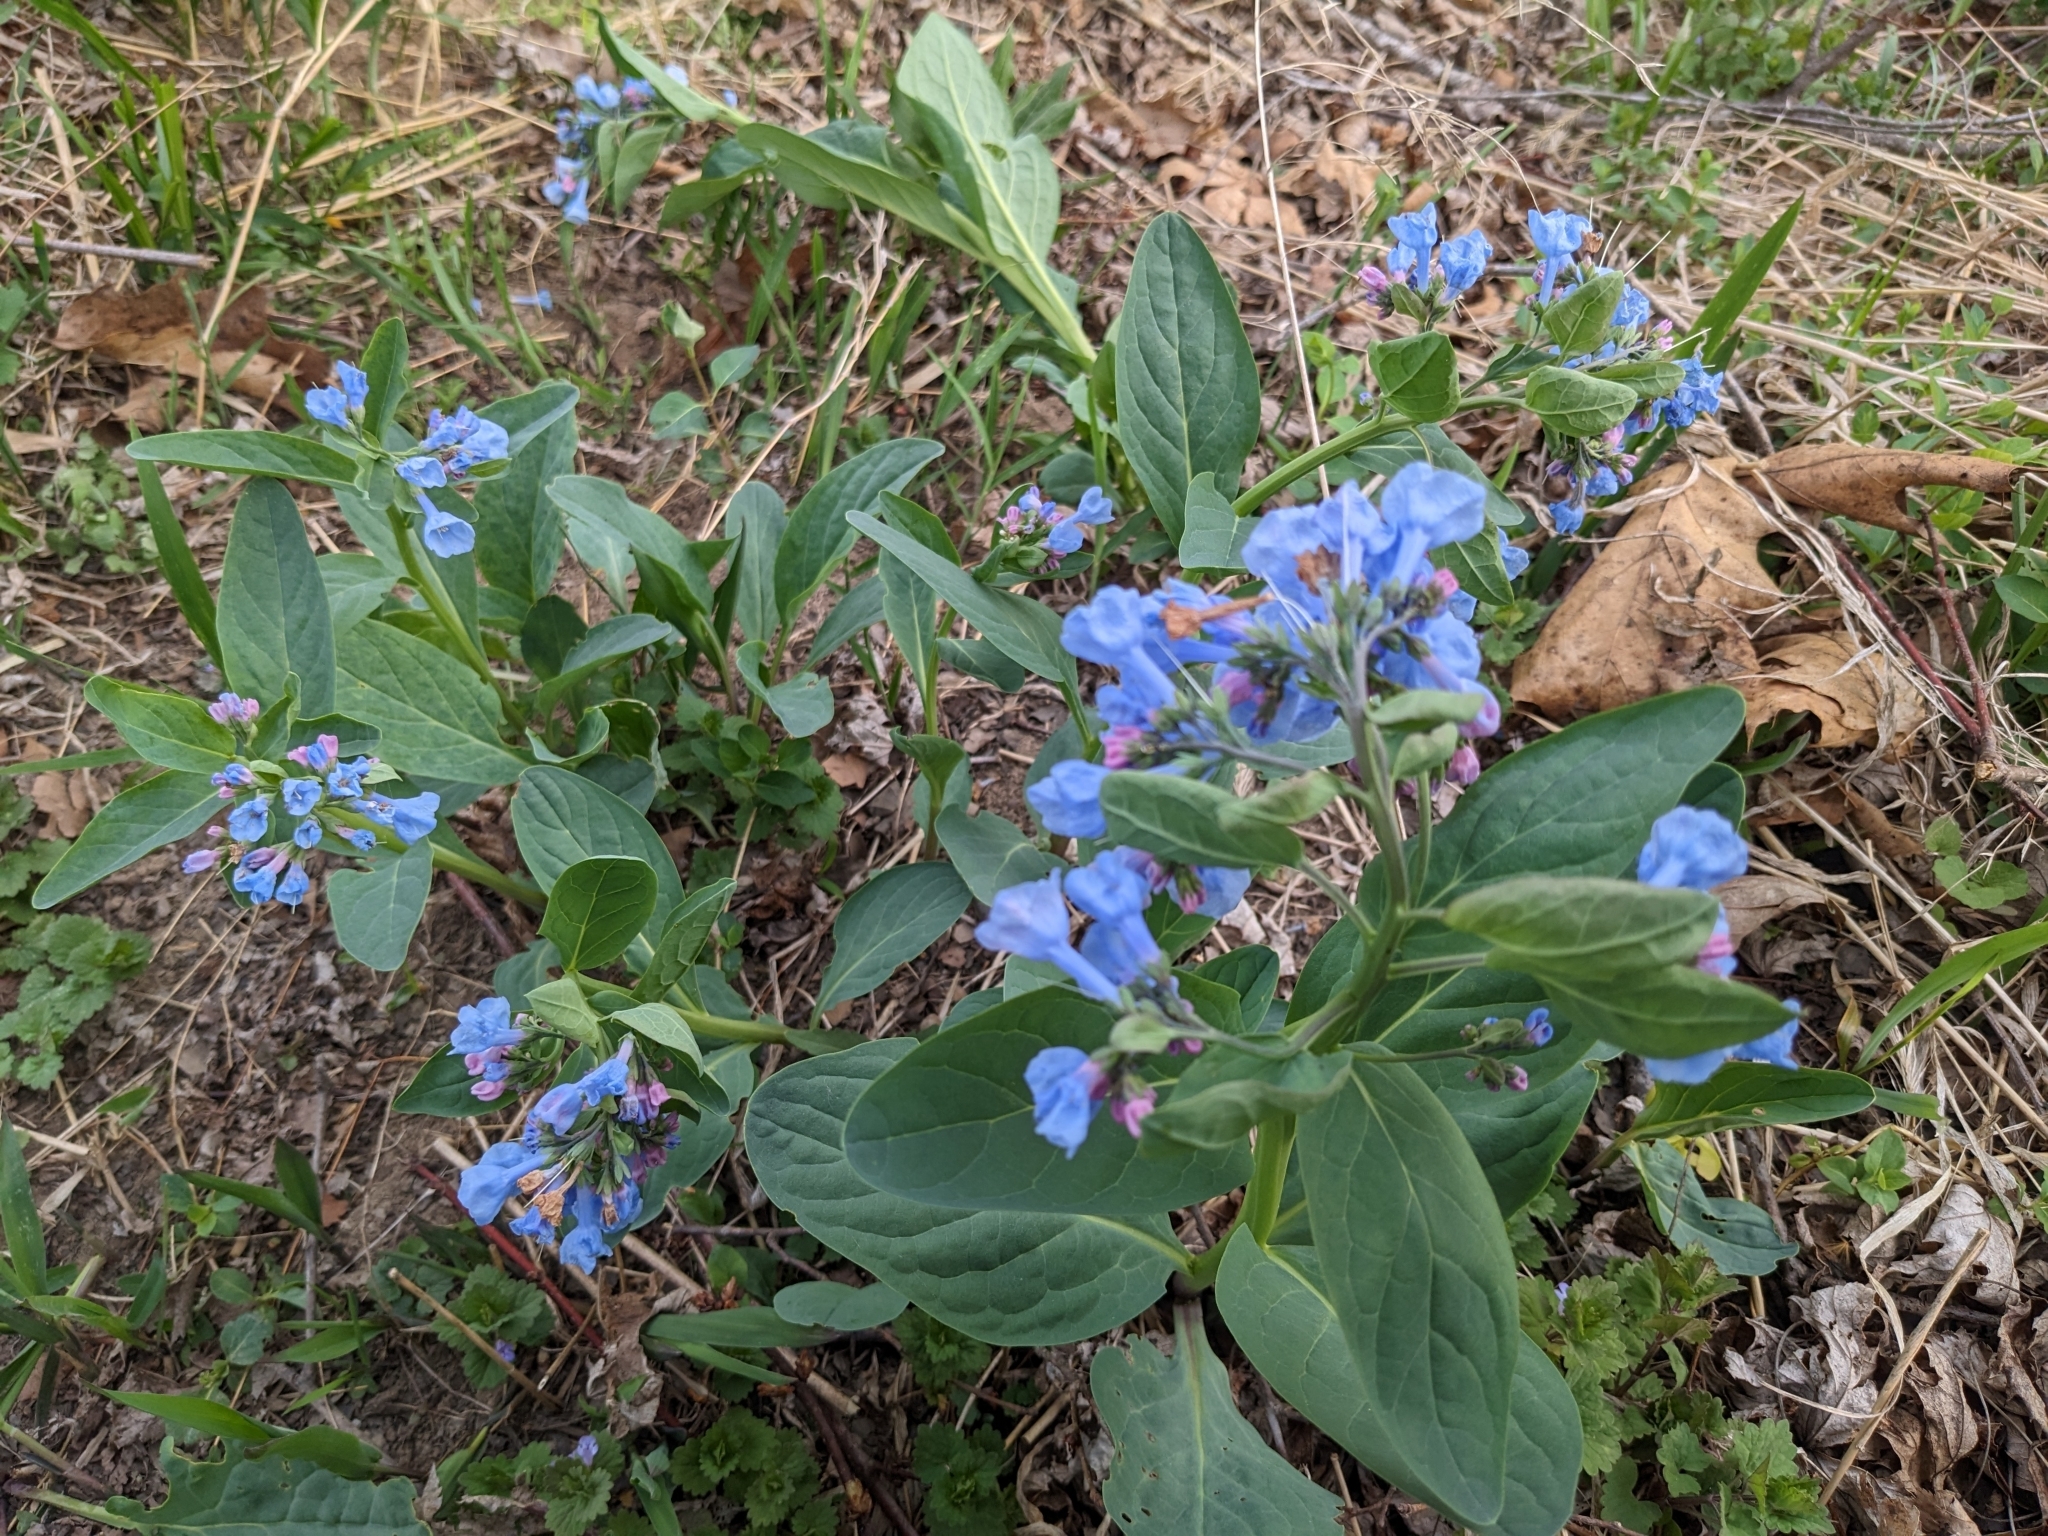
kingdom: Plantae
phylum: Tracheophyta
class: Magnoliopsida
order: Boraginales
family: Boraginaceae
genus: Mertensia
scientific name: Mertensia virginica
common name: Virginia bluebells
